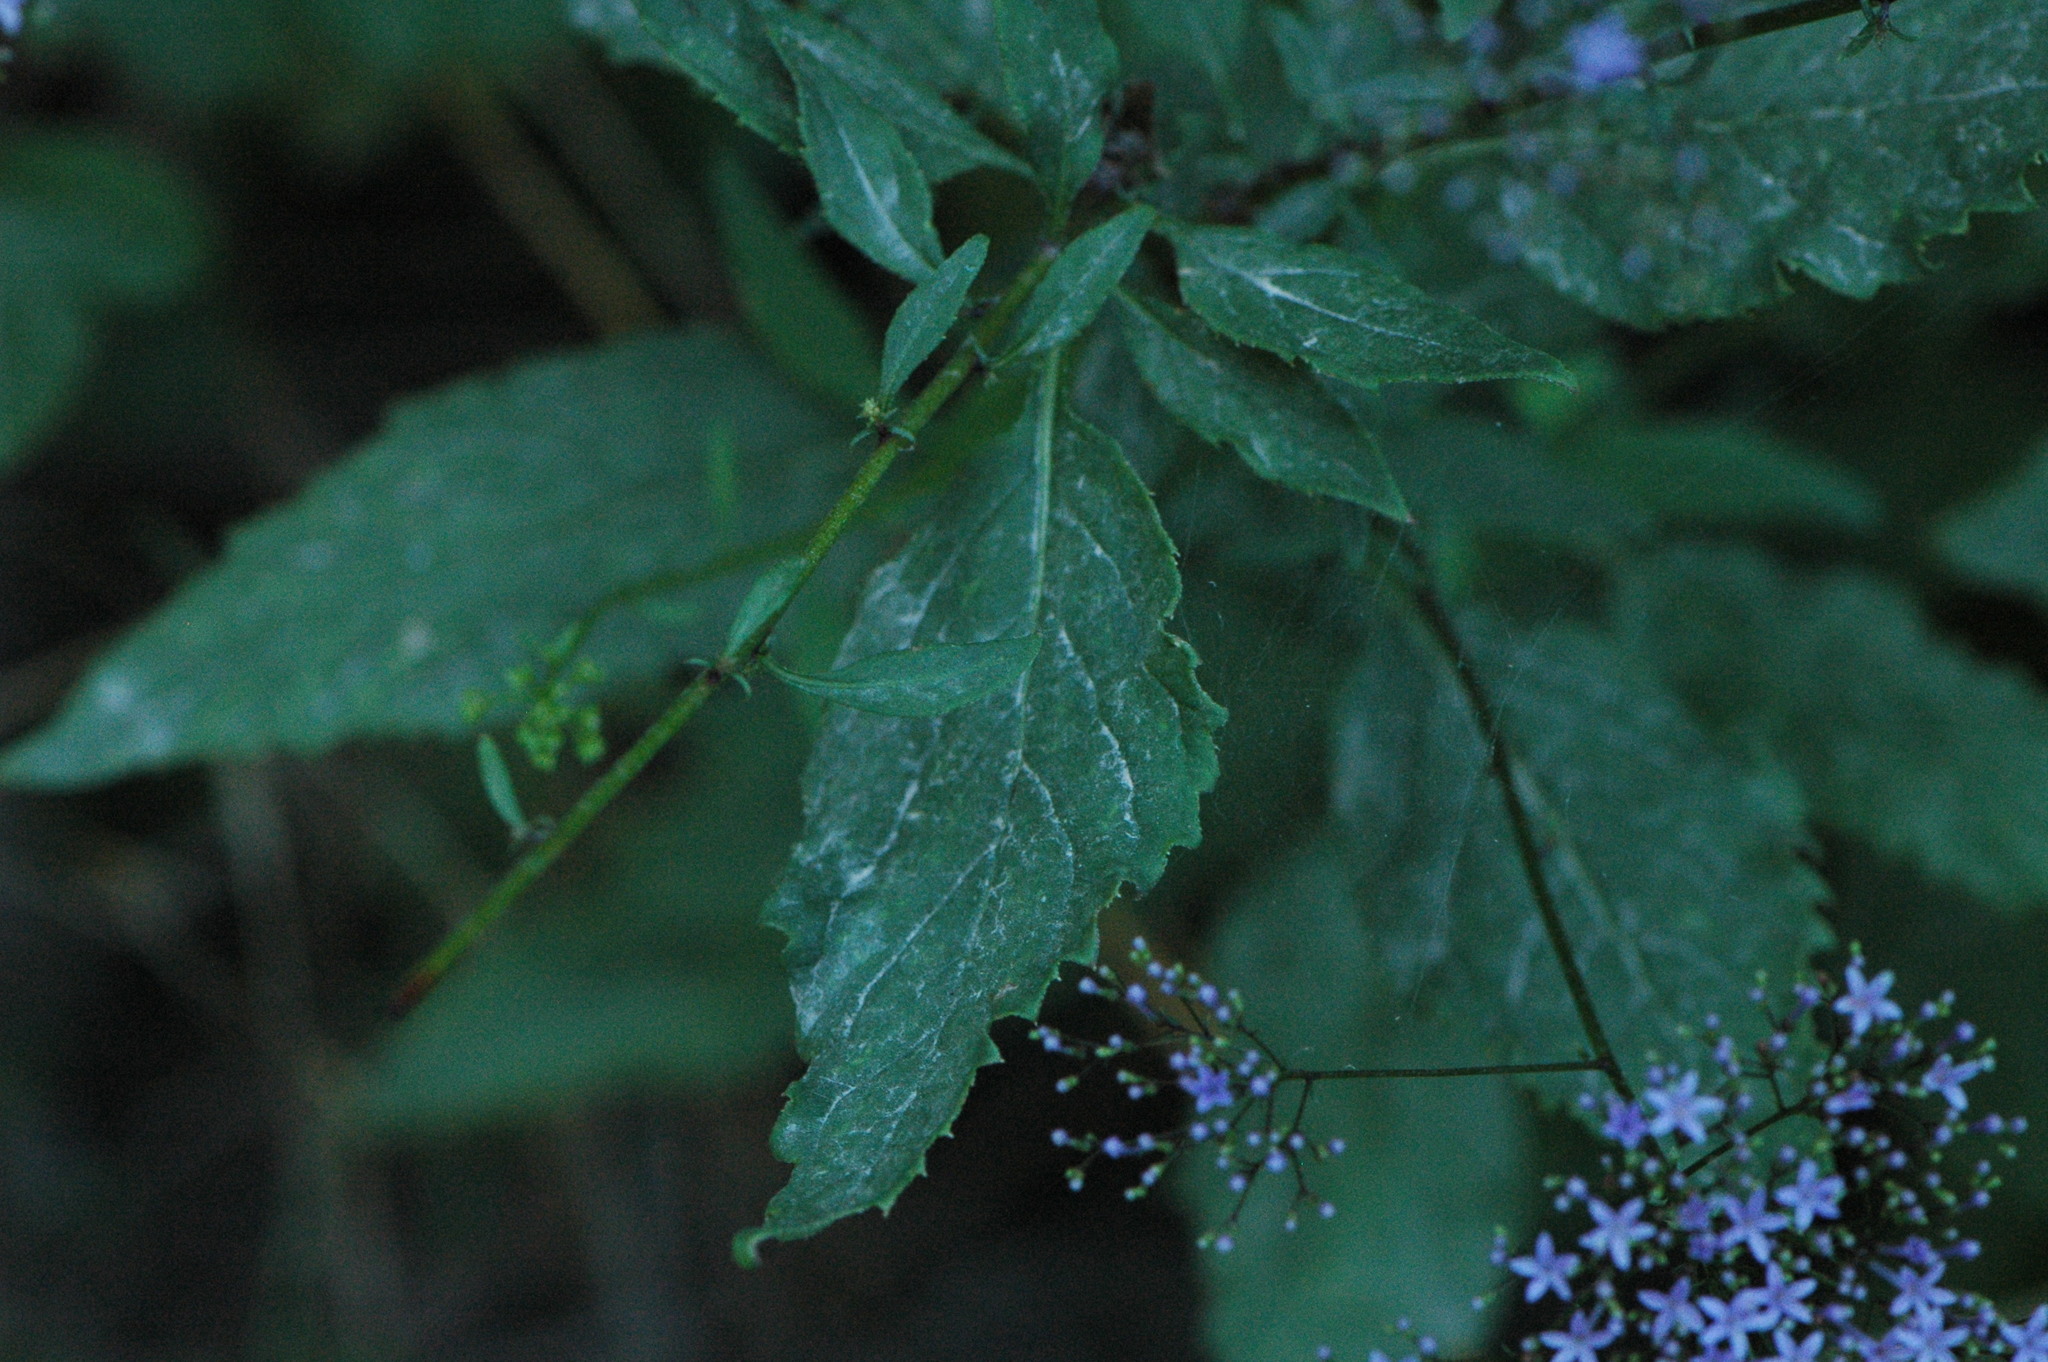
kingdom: Plantae
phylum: Tracheophyta
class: Magnoliopsida
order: Asterales
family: Campanulaceae
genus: Trachelium
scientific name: Trachelium caeruleum
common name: Throatwort
